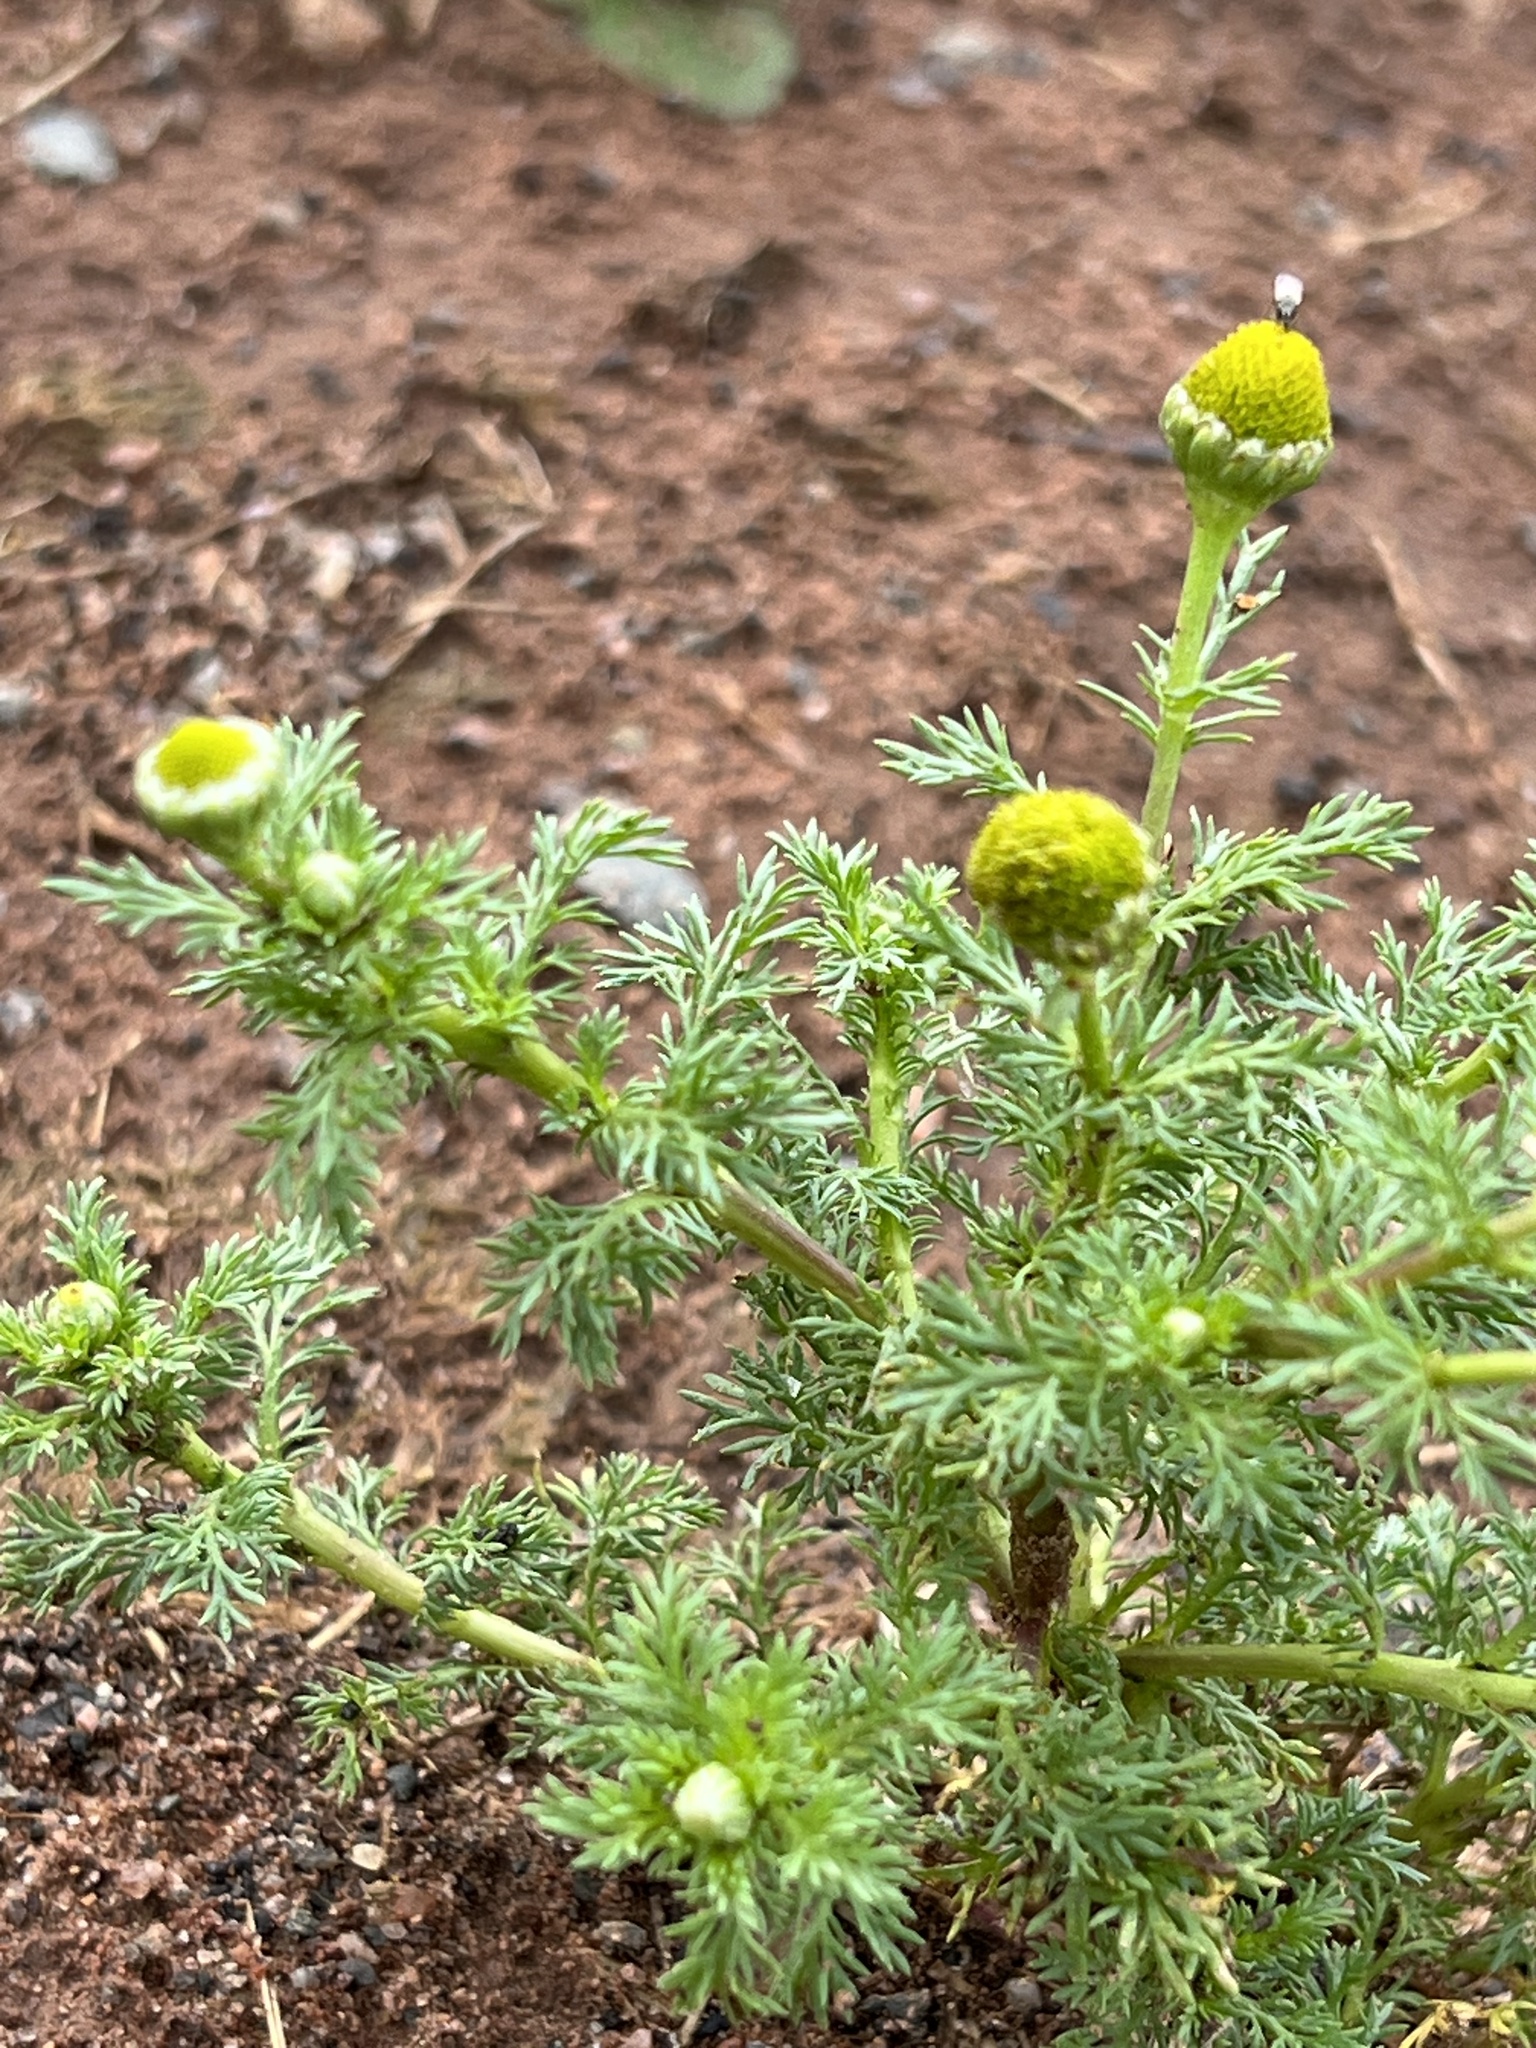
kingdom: Plantae
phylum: Tracheophyta
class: Magnoliopsida
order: Asterales
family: Asteraceae
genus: Matricaria
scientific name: Matricaria discoidea
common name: Disc mayweed
